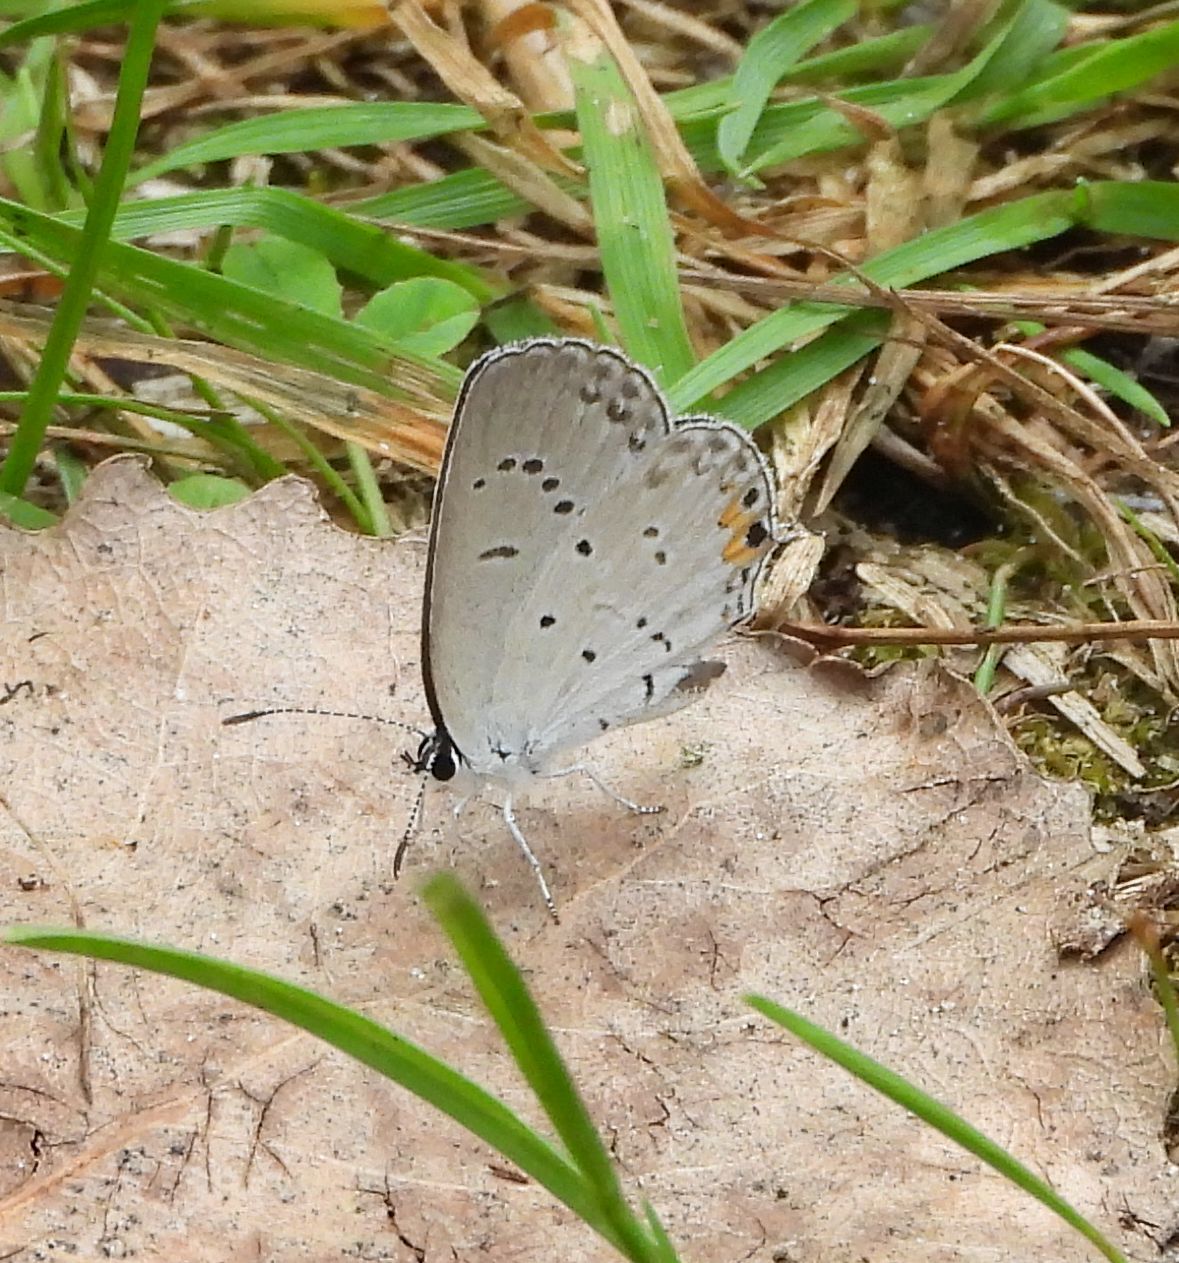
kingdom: Animalia
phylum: Arthropoda
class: Insecta
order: Lepidoptera
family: Lycaenidae
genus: Elkalyce
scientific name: Elkalyce comyntas
